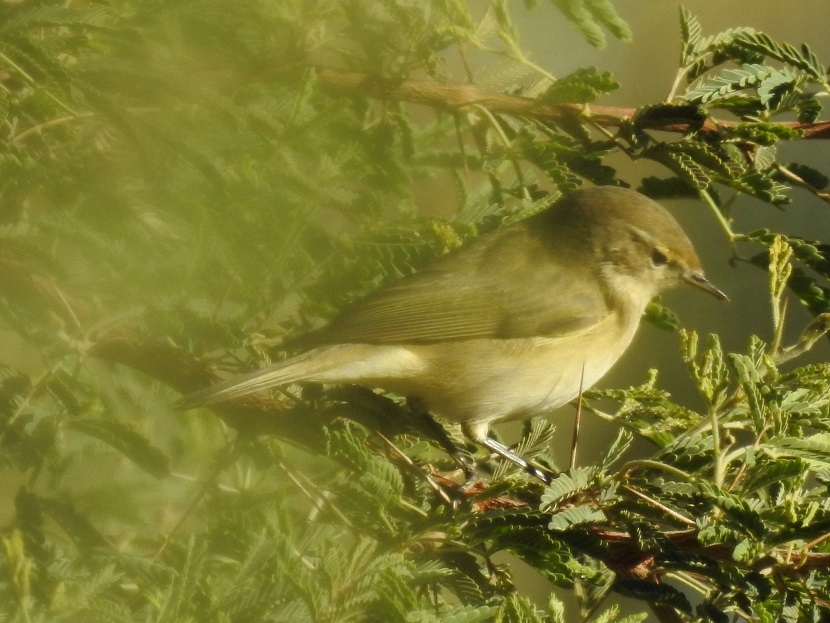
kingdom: Animalia
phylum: Chordata
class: Aves
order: Passeriformes
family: Phylloscopidae
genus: Phylloscopus
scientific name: Phylloscopus collybita
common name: Common chiffchaff
